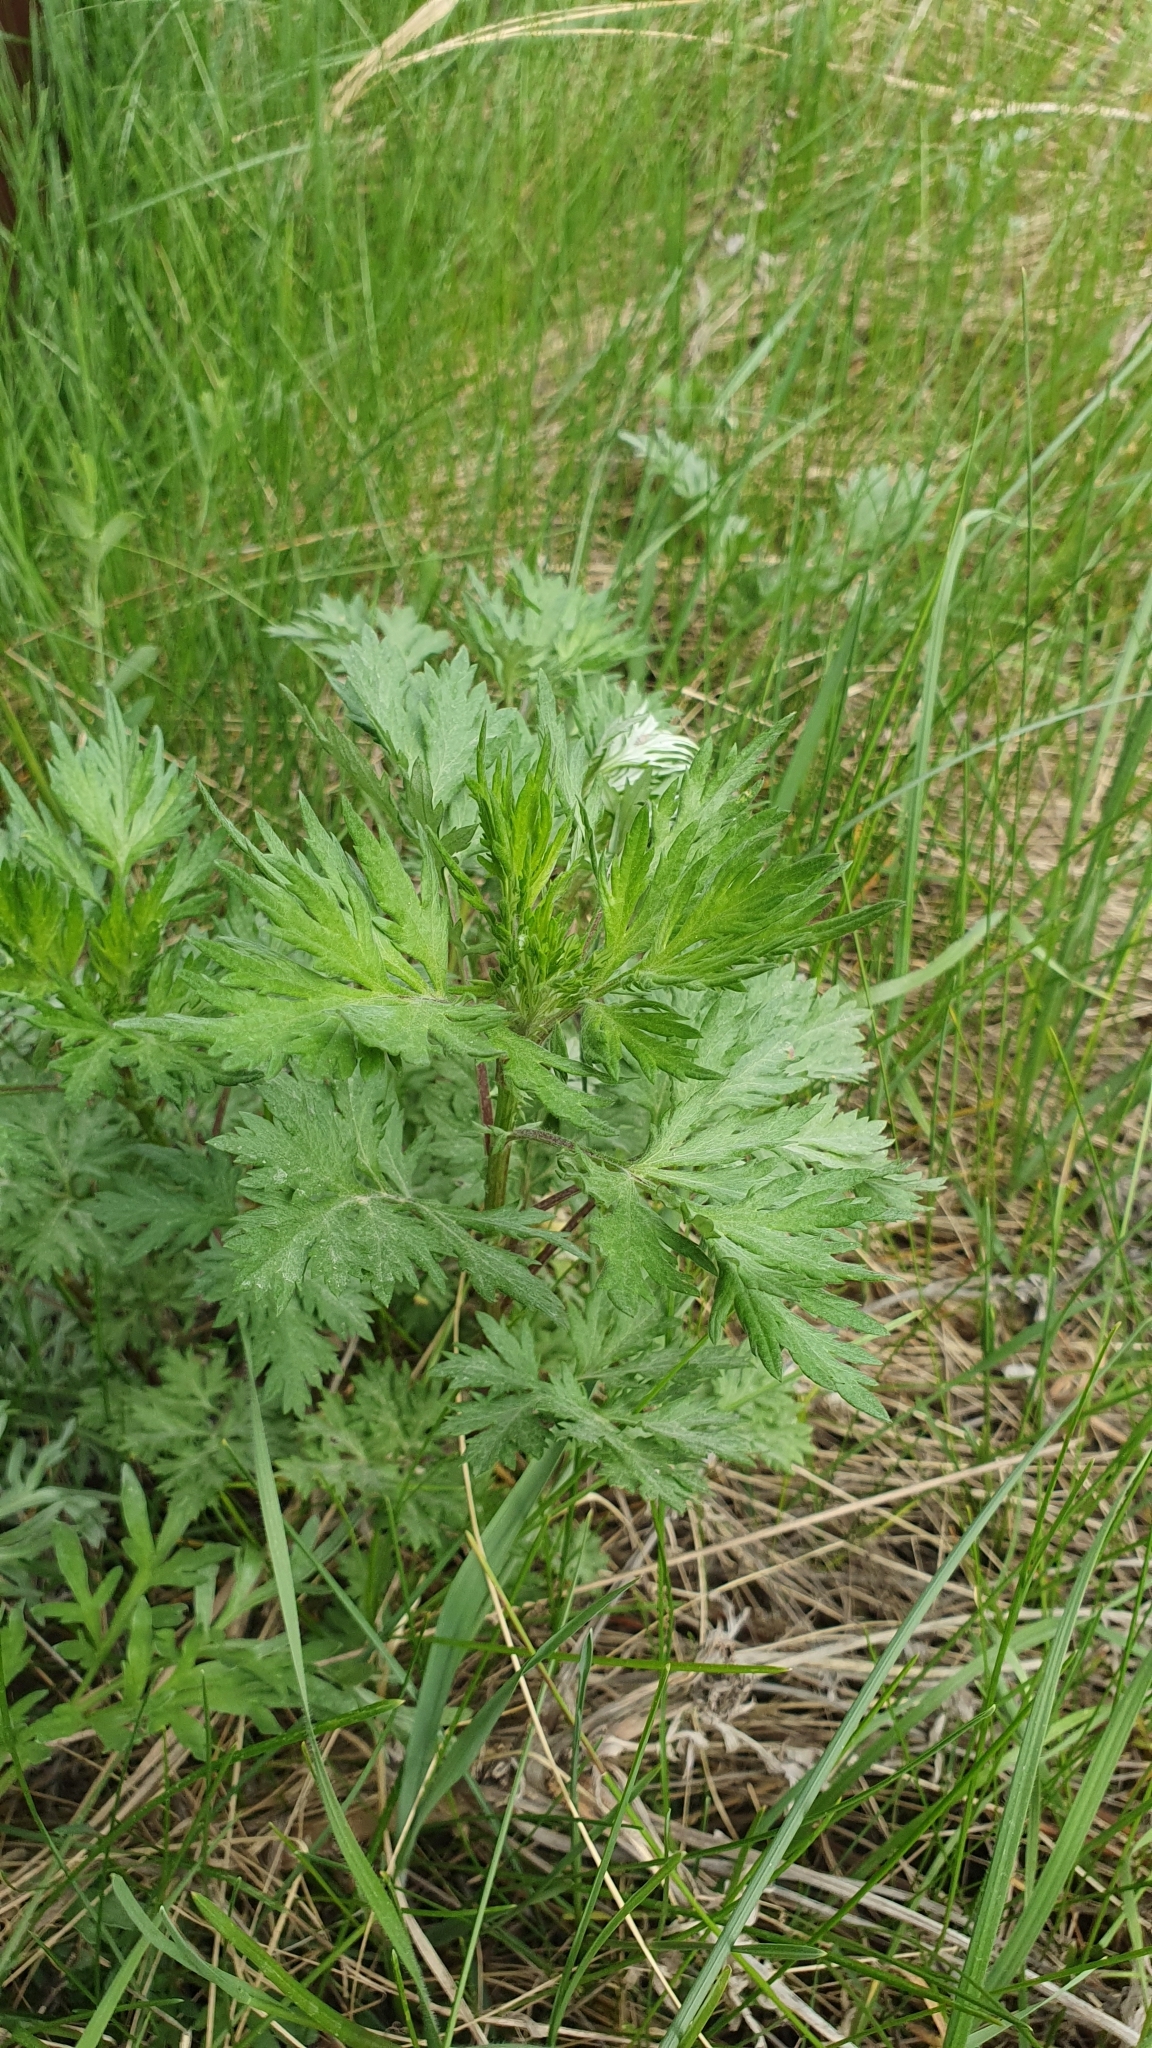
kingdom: Plantae
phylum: Tracheophyta
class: Magnoliopsida
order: Asterales
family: Asteraceae
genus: Artemisia
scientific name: Artemisia vulgaris
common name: Mugwort
